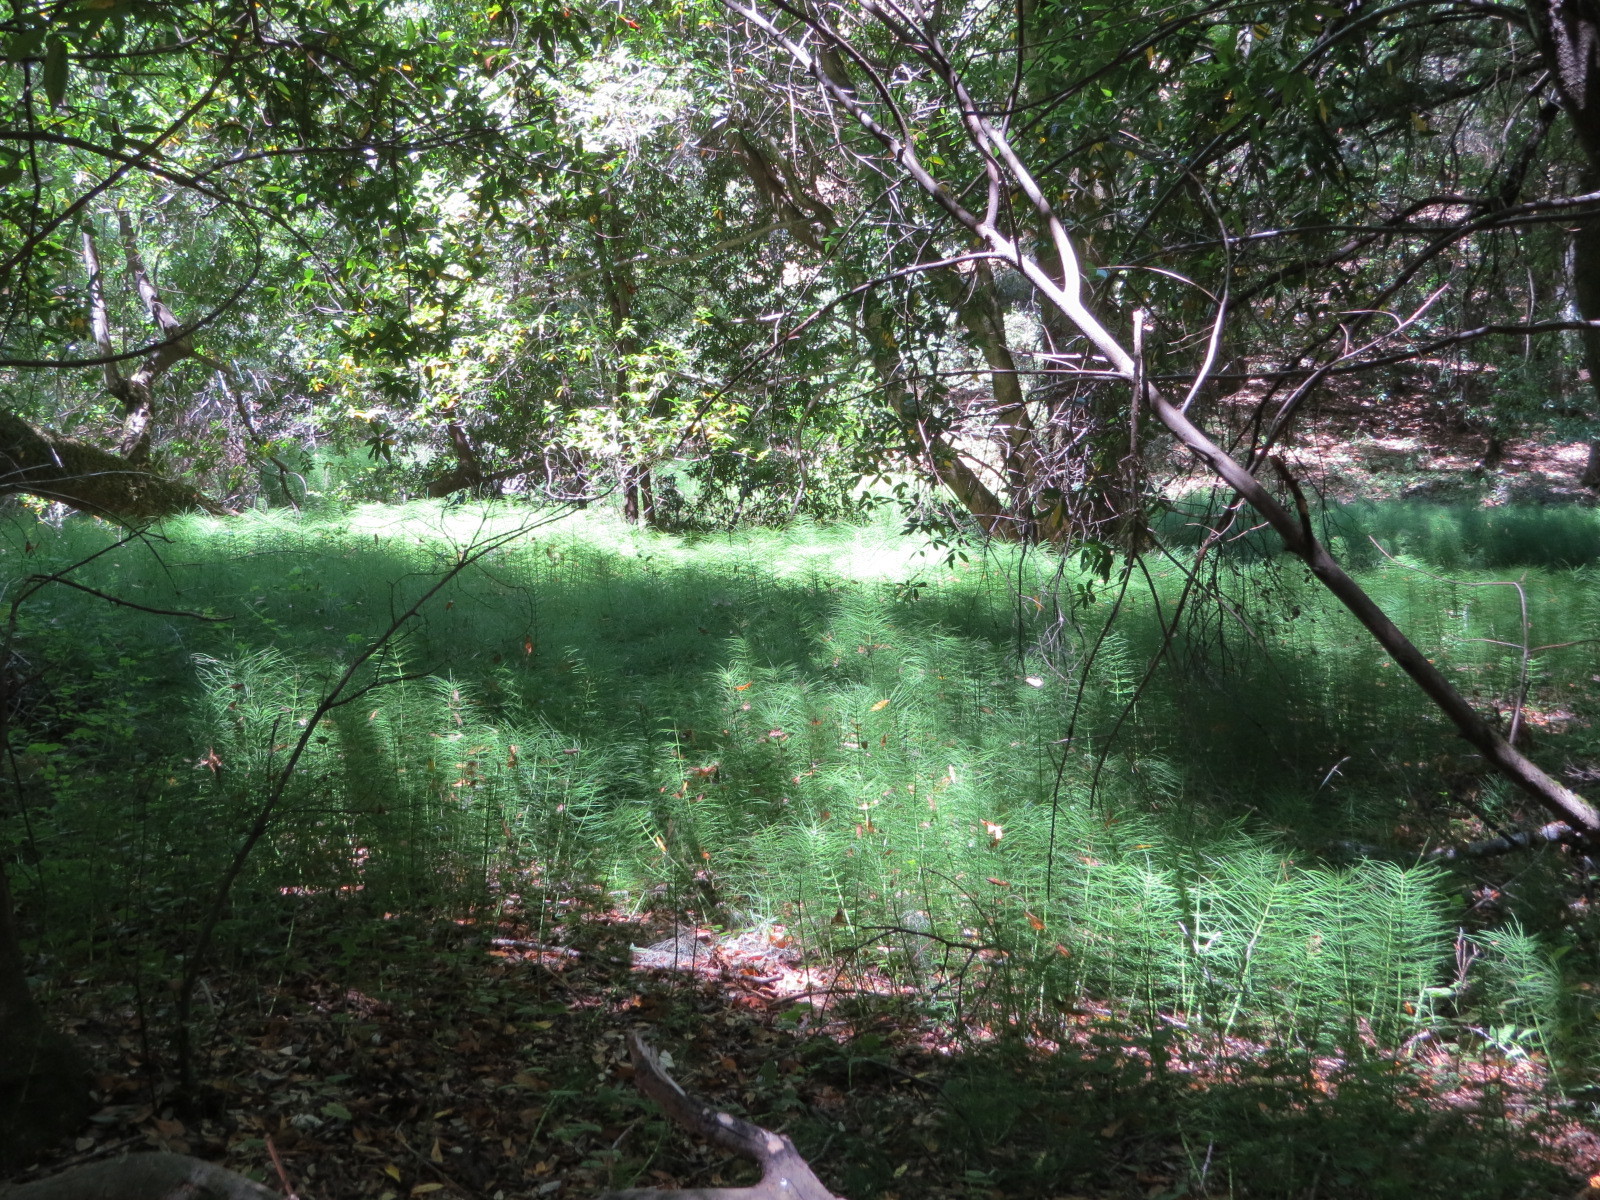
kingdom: Plantae
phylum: Tracheophyta
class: Polypodiopsida
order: Equisetales
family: Equisetaceae
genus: Equisetum
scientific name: Equisetum telmateia
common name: Great horsetail
